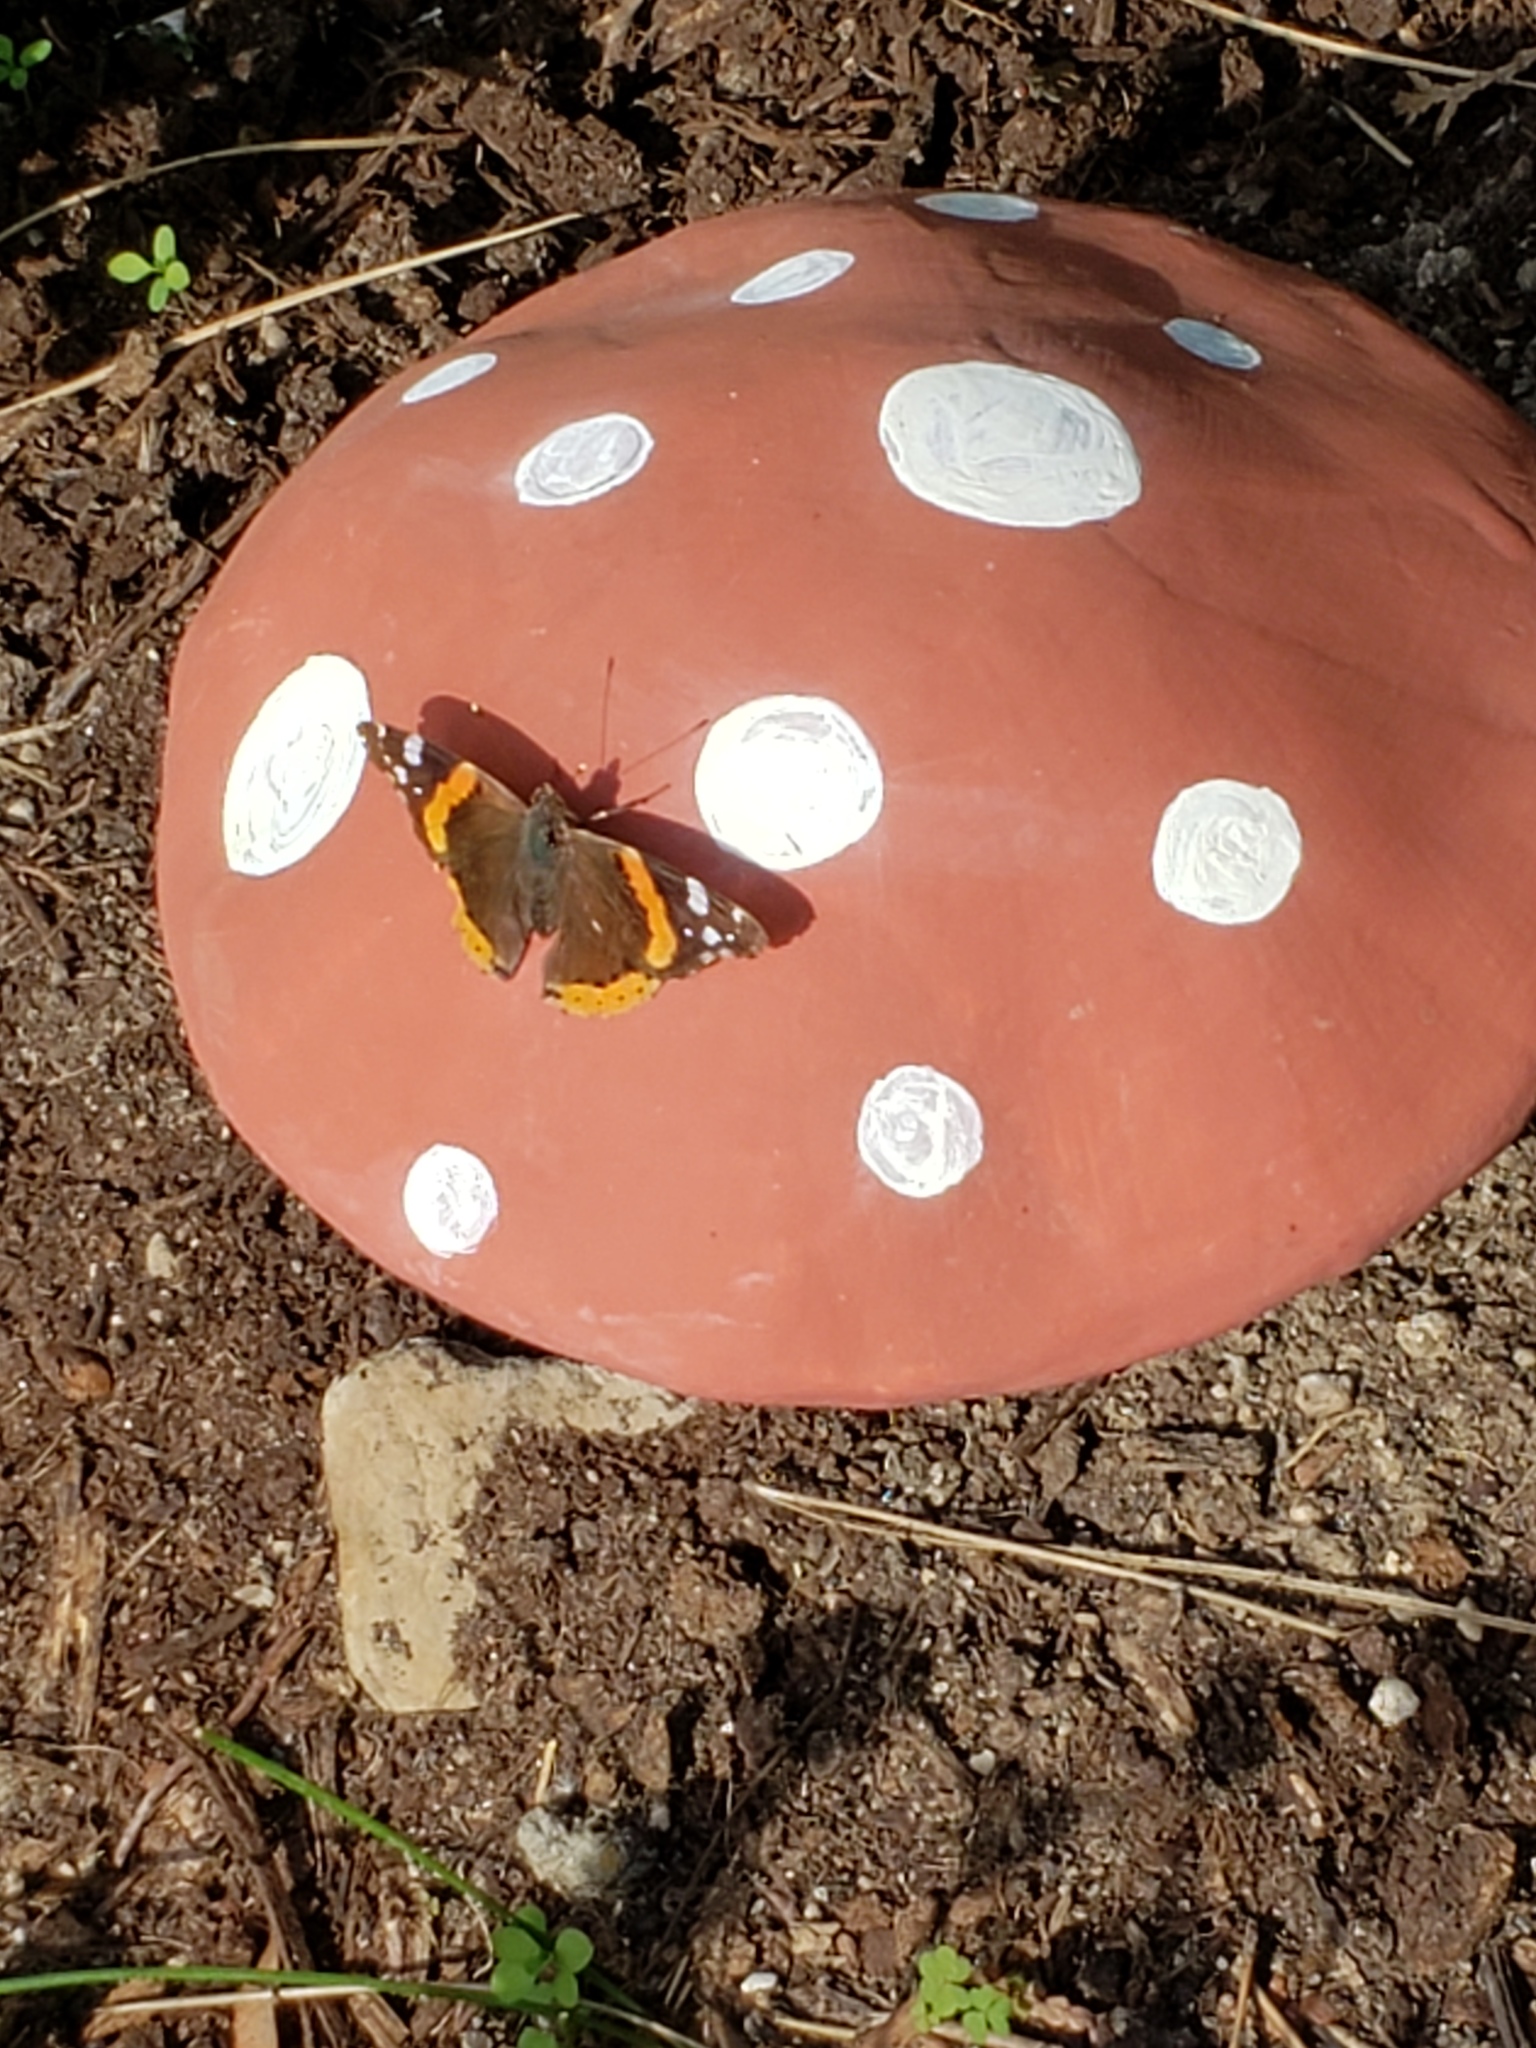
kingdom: Animalia
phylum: Arthropoda
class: Insecta
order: Lepidoptera
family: Nymphalidae
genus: Vanessa
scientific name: Vanessa atalanta
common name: Red admiral
